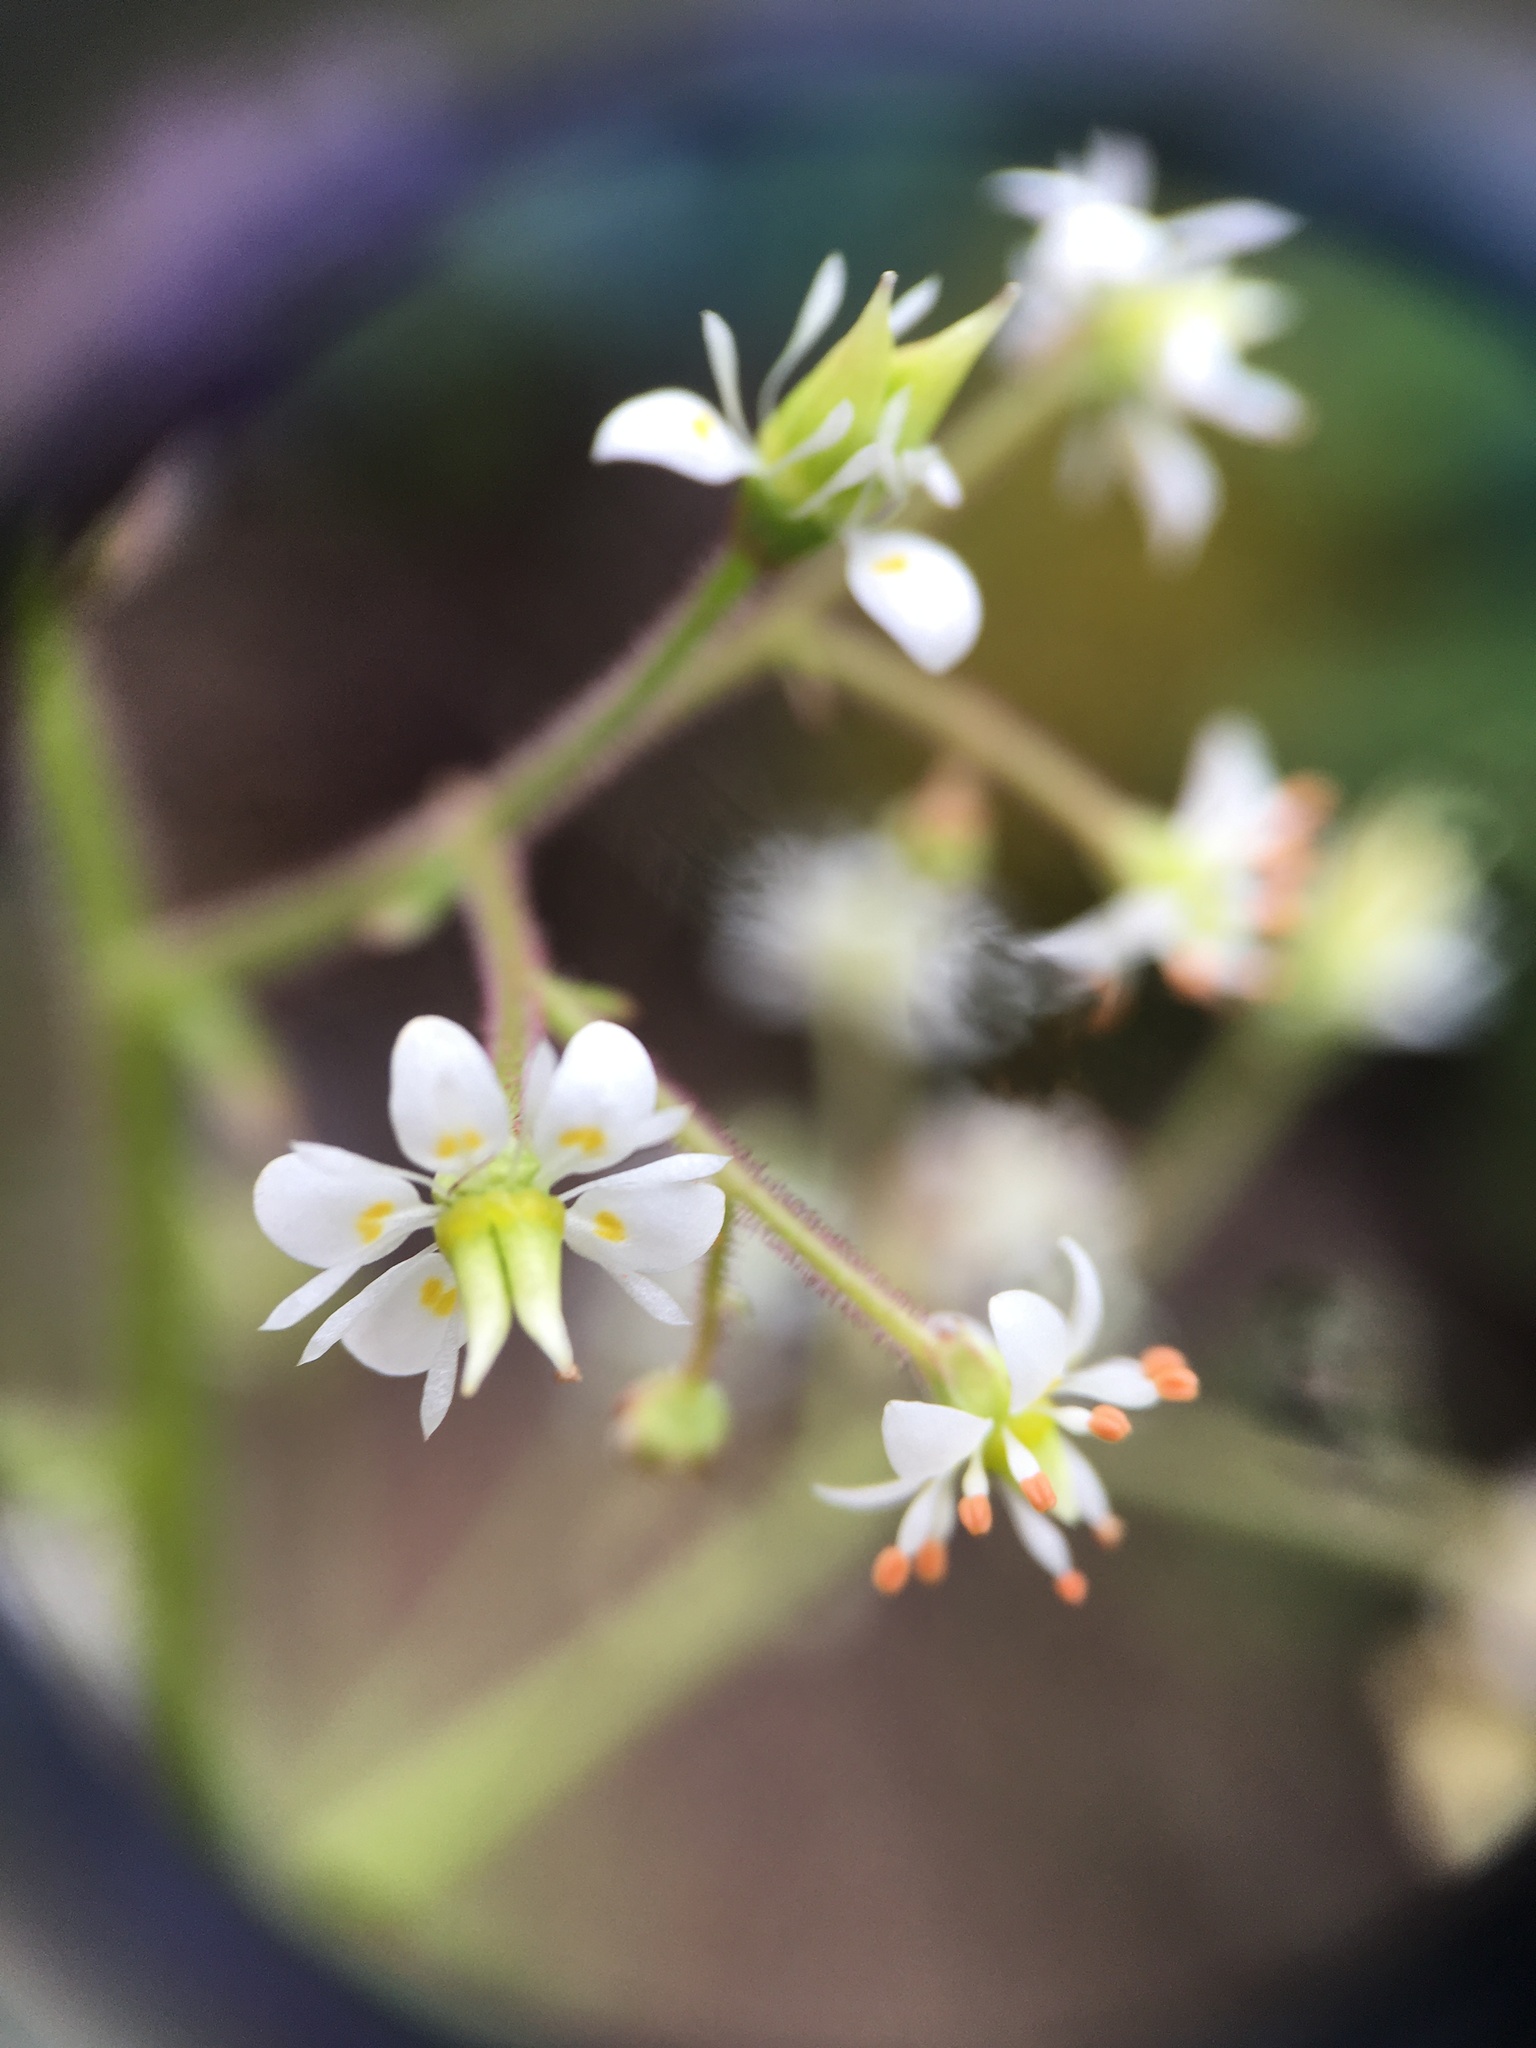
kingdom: Plantae
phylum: Tracheophyta
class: Magnoliopsida
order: Saxifragales
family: Saxifragaceae
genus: Micranthes
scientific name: Micranthes micranthidifolia
